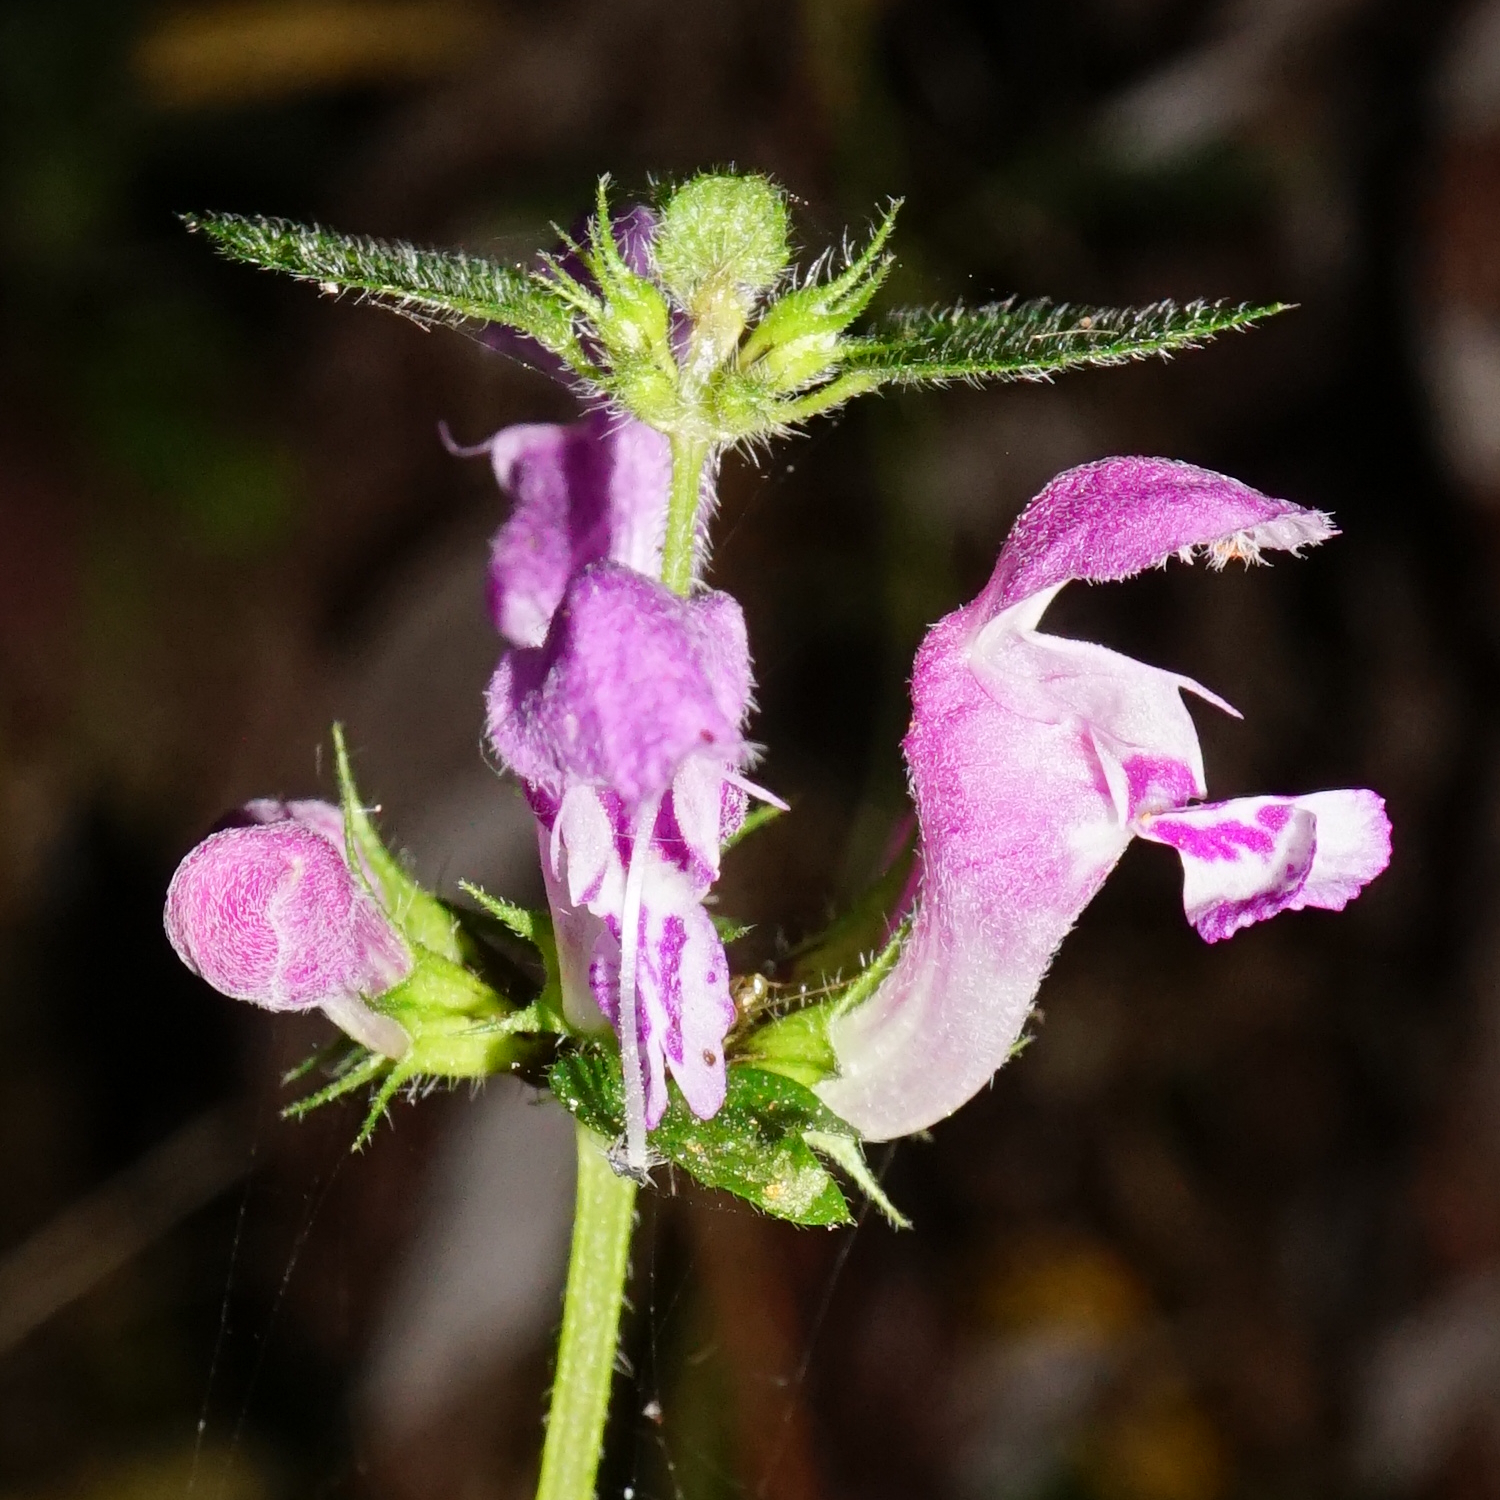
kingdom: Plantae
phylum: Tracheophyta
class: Magnoliopsida
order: Lamiales
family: Lamiaceae
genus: Lamium
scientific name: Lamium maculatum
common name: Spotted dead-nettle
